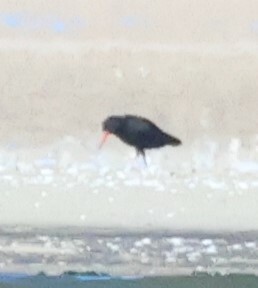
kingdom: Animalia
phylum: Chordata
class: Aves
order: Charadriiformes
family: Haematopodidae
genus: Haematopus
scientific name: Haematopus moquini
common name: African oystercatcher
